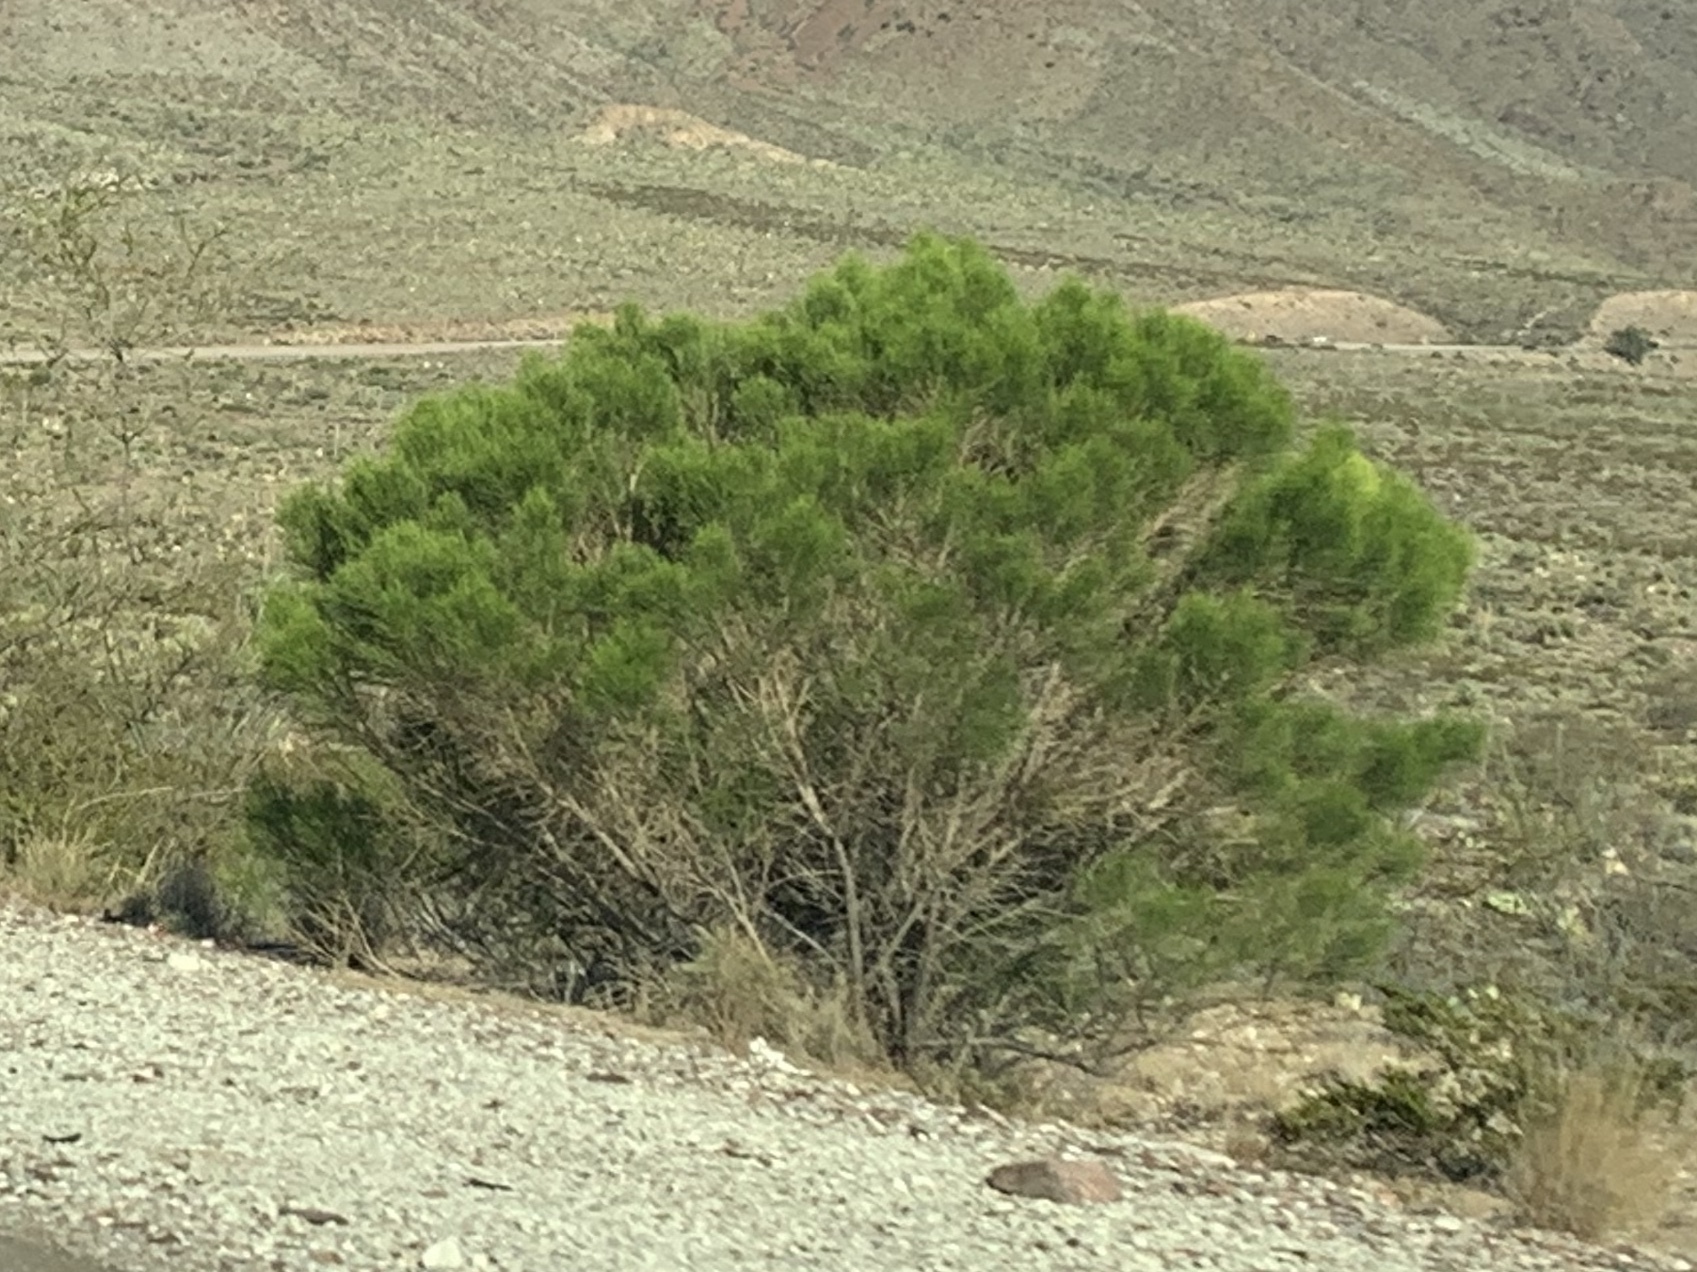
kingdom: Plantae
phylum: Tracheophyta
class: Magnoliopsida
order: Asterales
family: Asteraceae
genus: Baccharis
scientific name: Baccharis sarothroides
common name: Desert-broom
